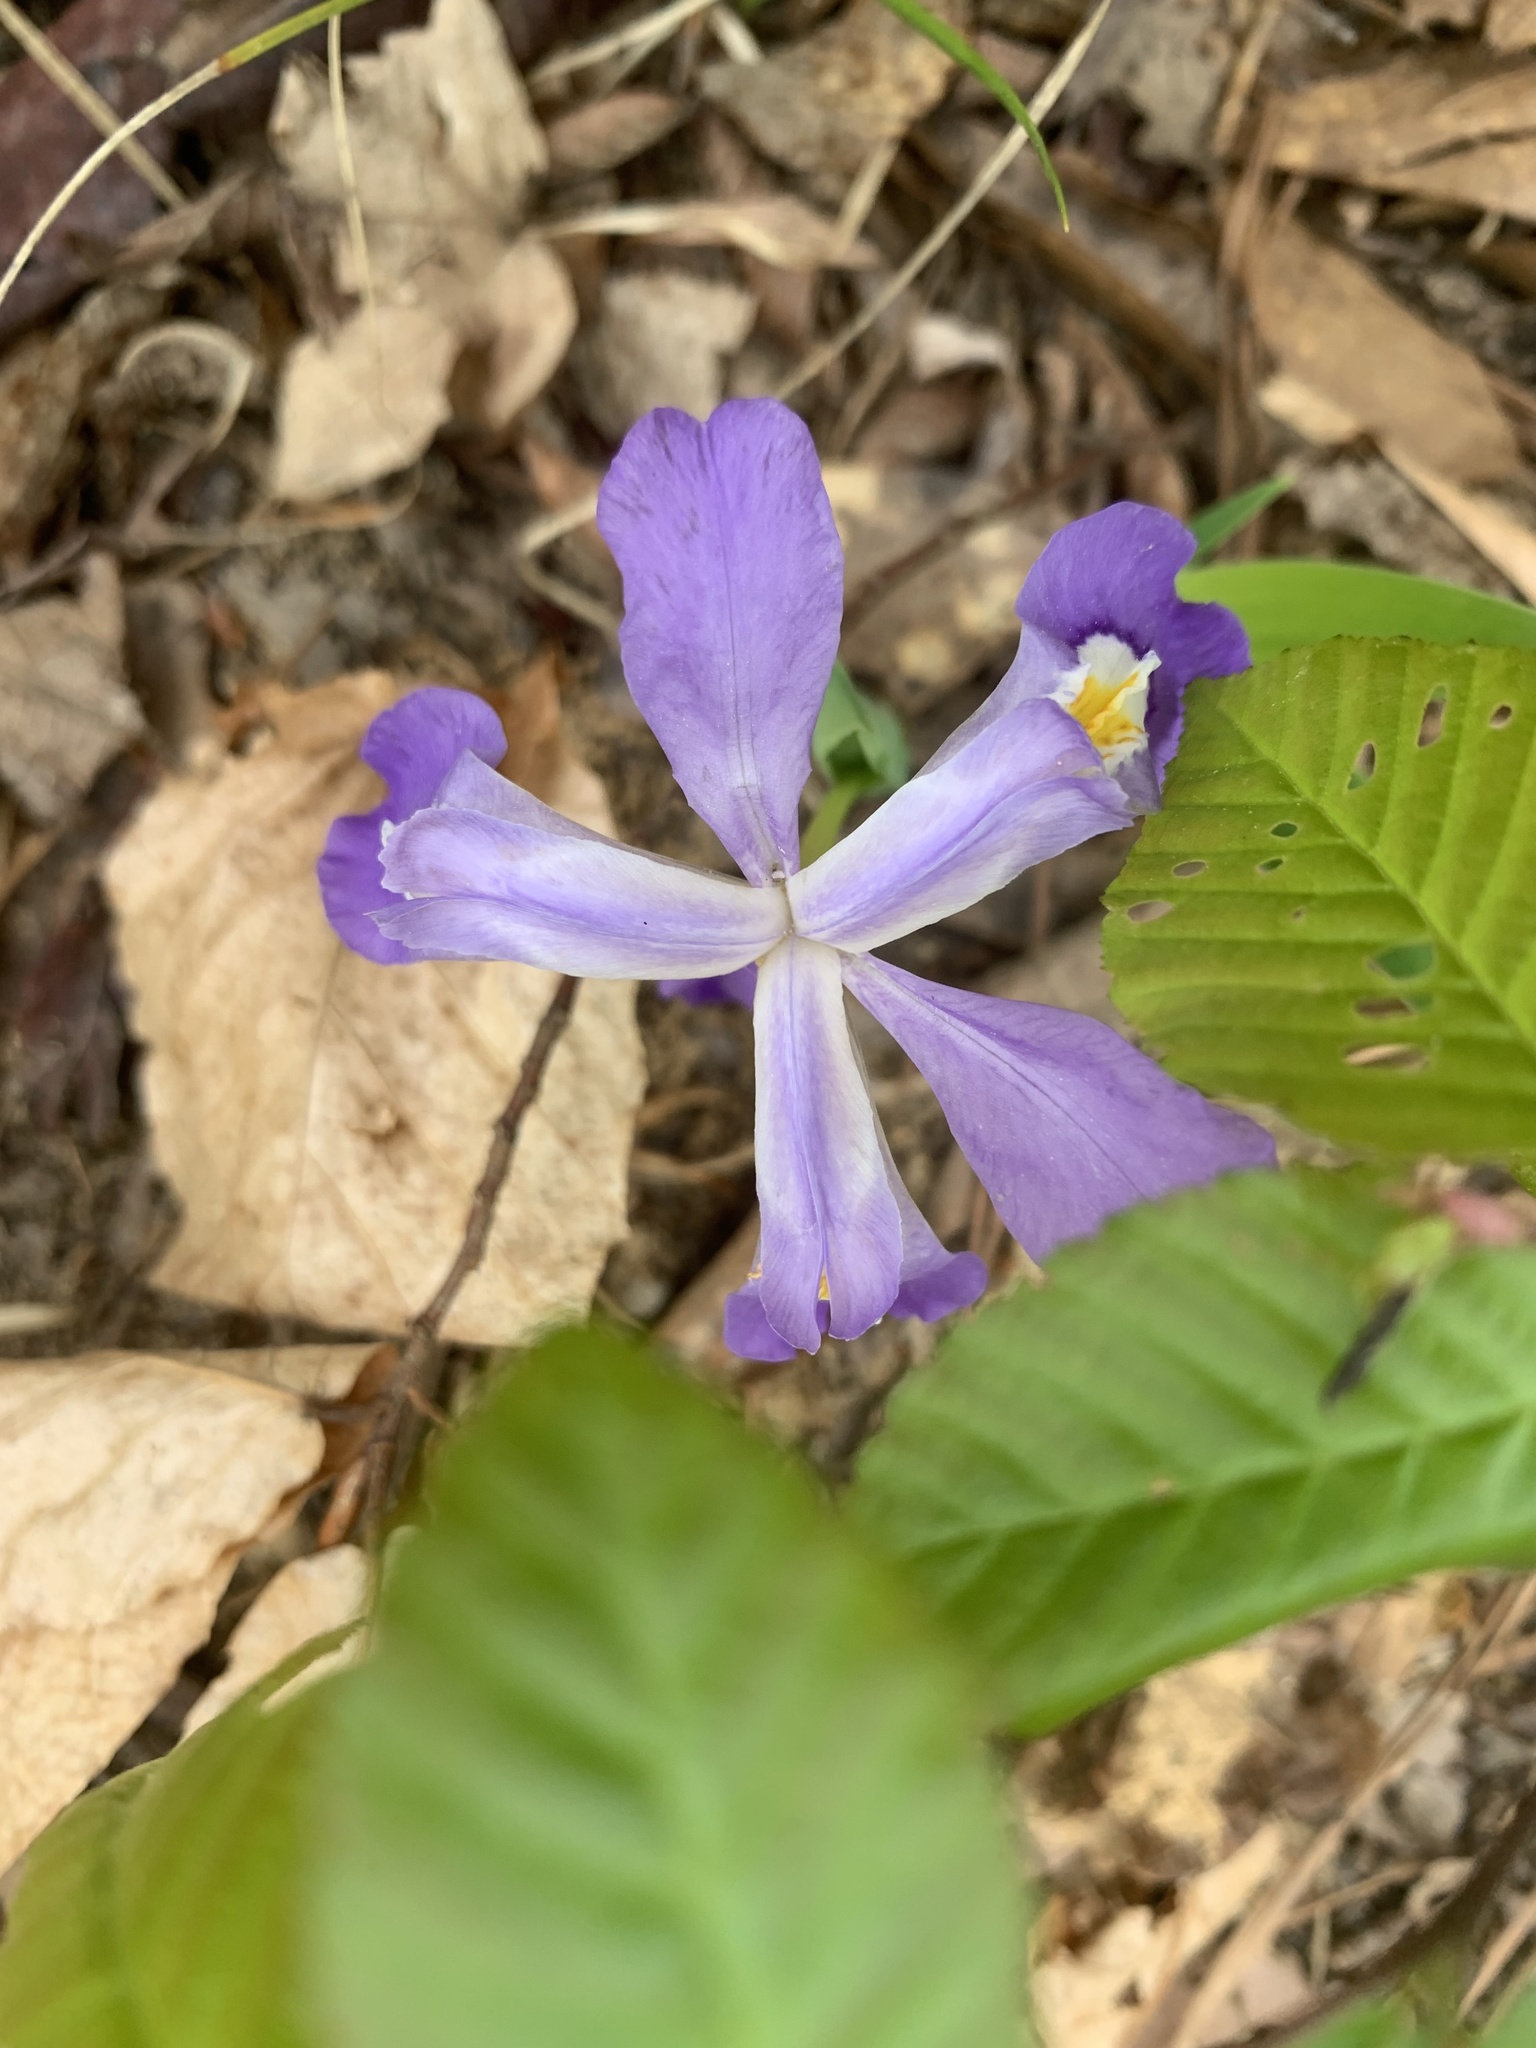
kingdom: Plantae
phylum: Tracheophyta
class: Liliopsida
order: Asparagales
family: Iridaceae
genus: Iris
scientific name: Iris cristata
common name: Crested iris
